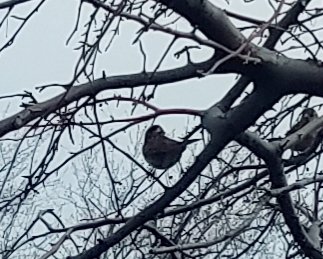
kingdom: Animalia
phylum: Chordata
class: Aves
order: Passeriformes
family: Passerellidae
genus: Zonotrichia
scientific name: Zonotrichia albicollis
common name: White-throated sparrow
